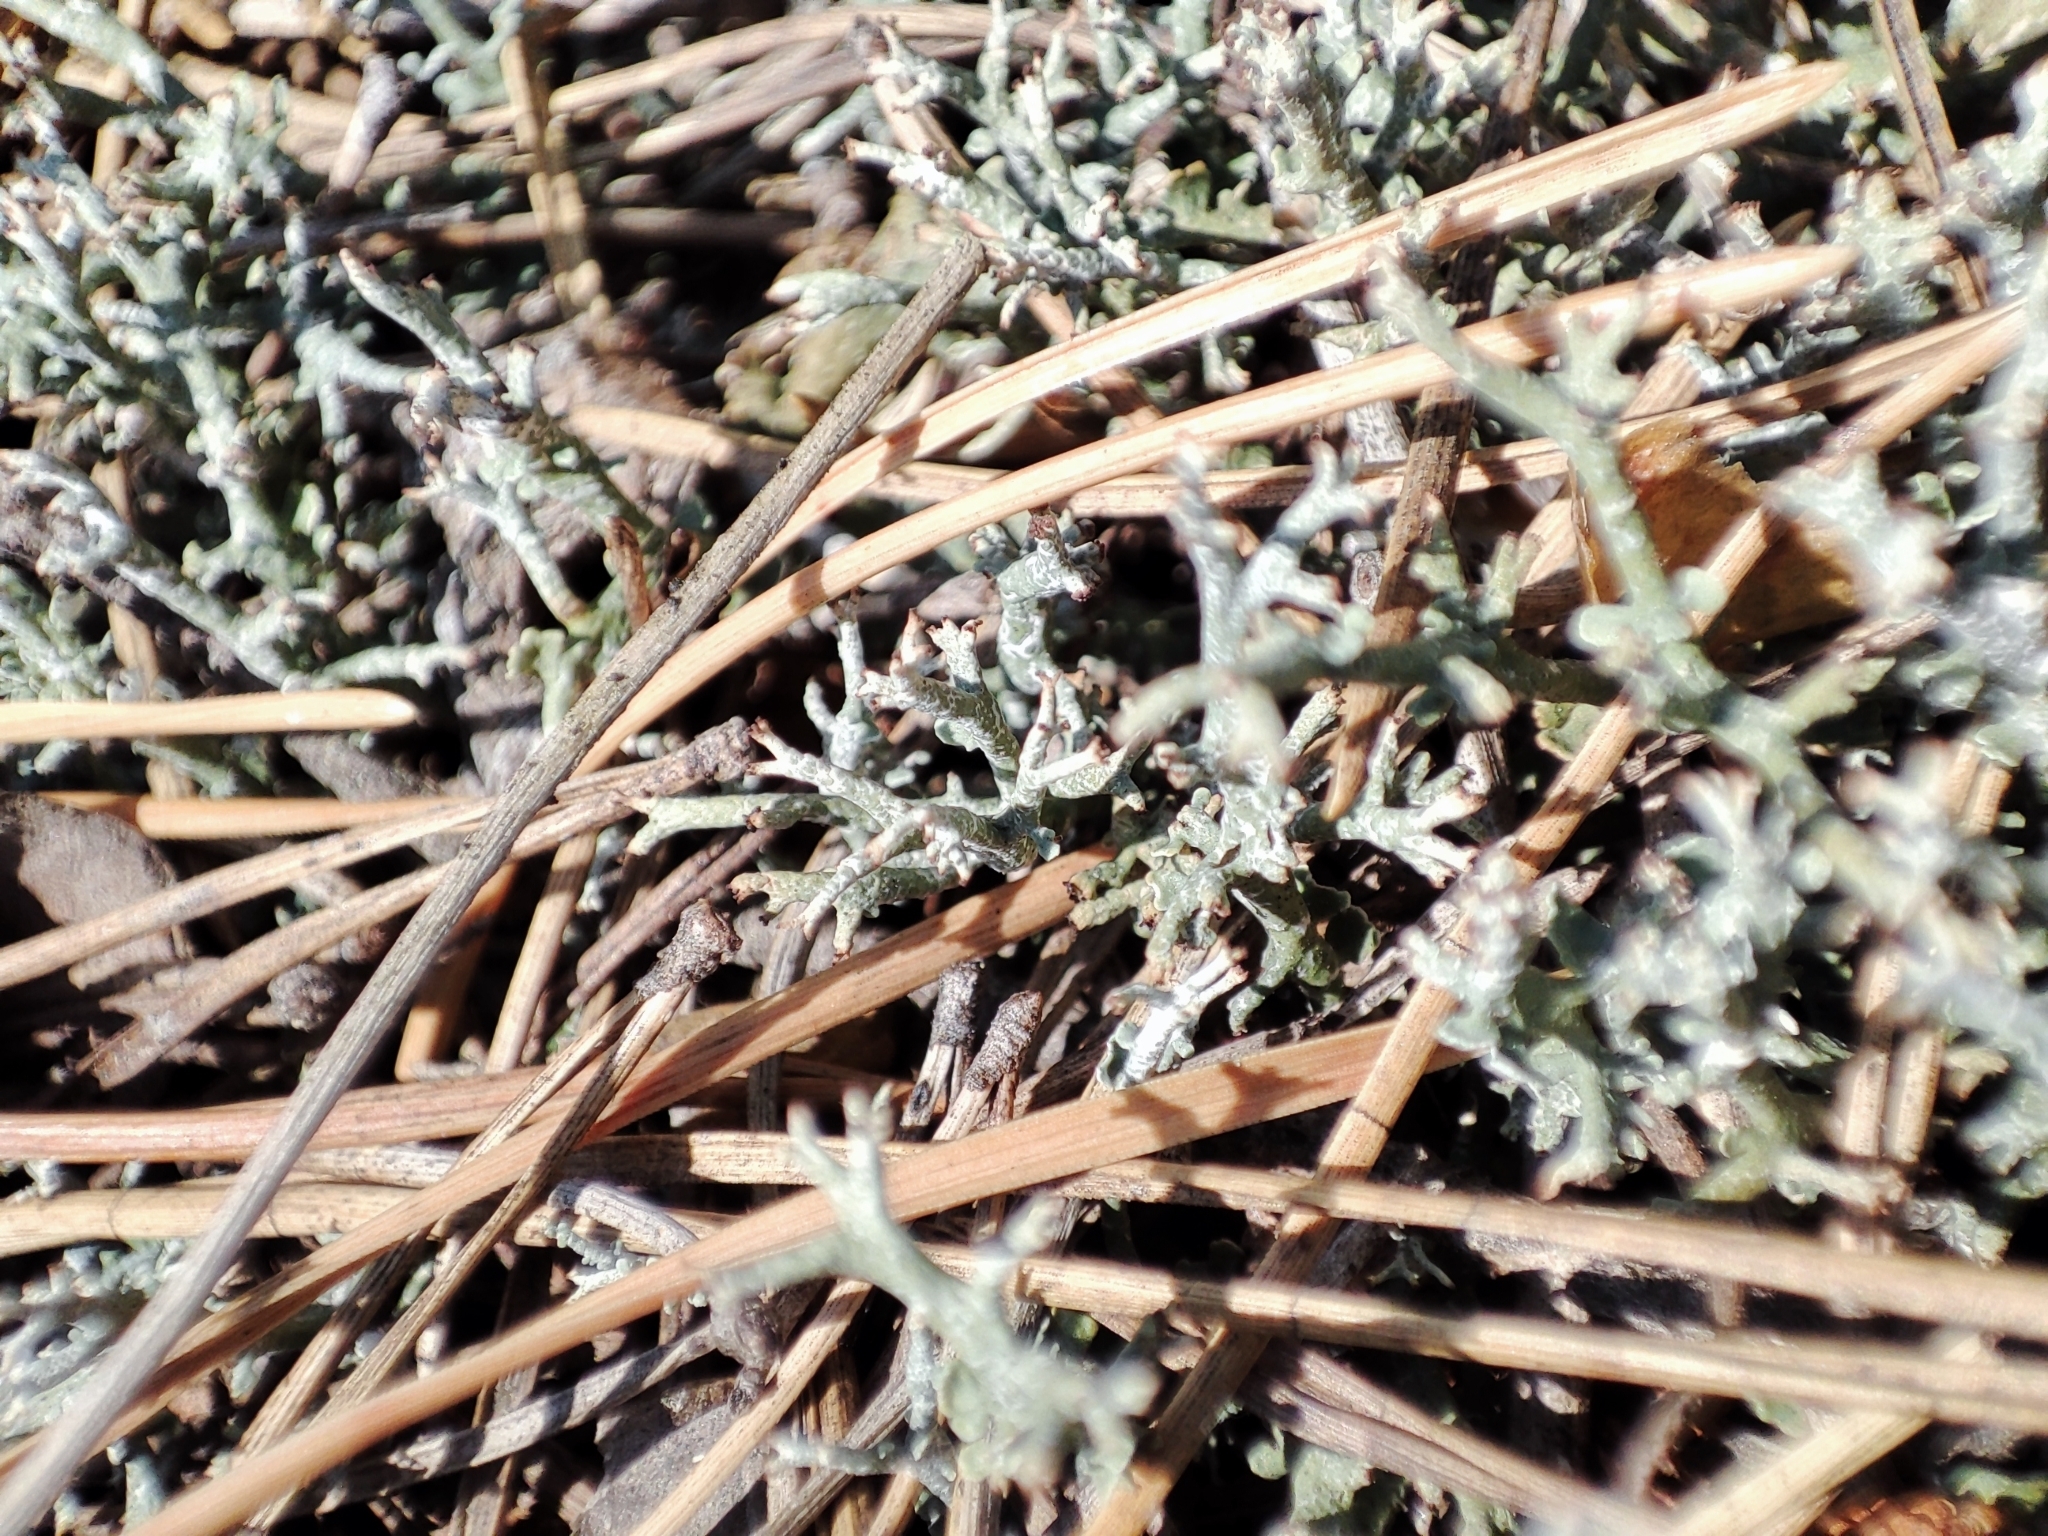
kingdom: Fungi
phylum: Ascomycota
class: Lecanoromycetes
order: Lecanorales
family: Cladoniaceae
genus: Cladonia
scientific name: Cladonia rangiformis
